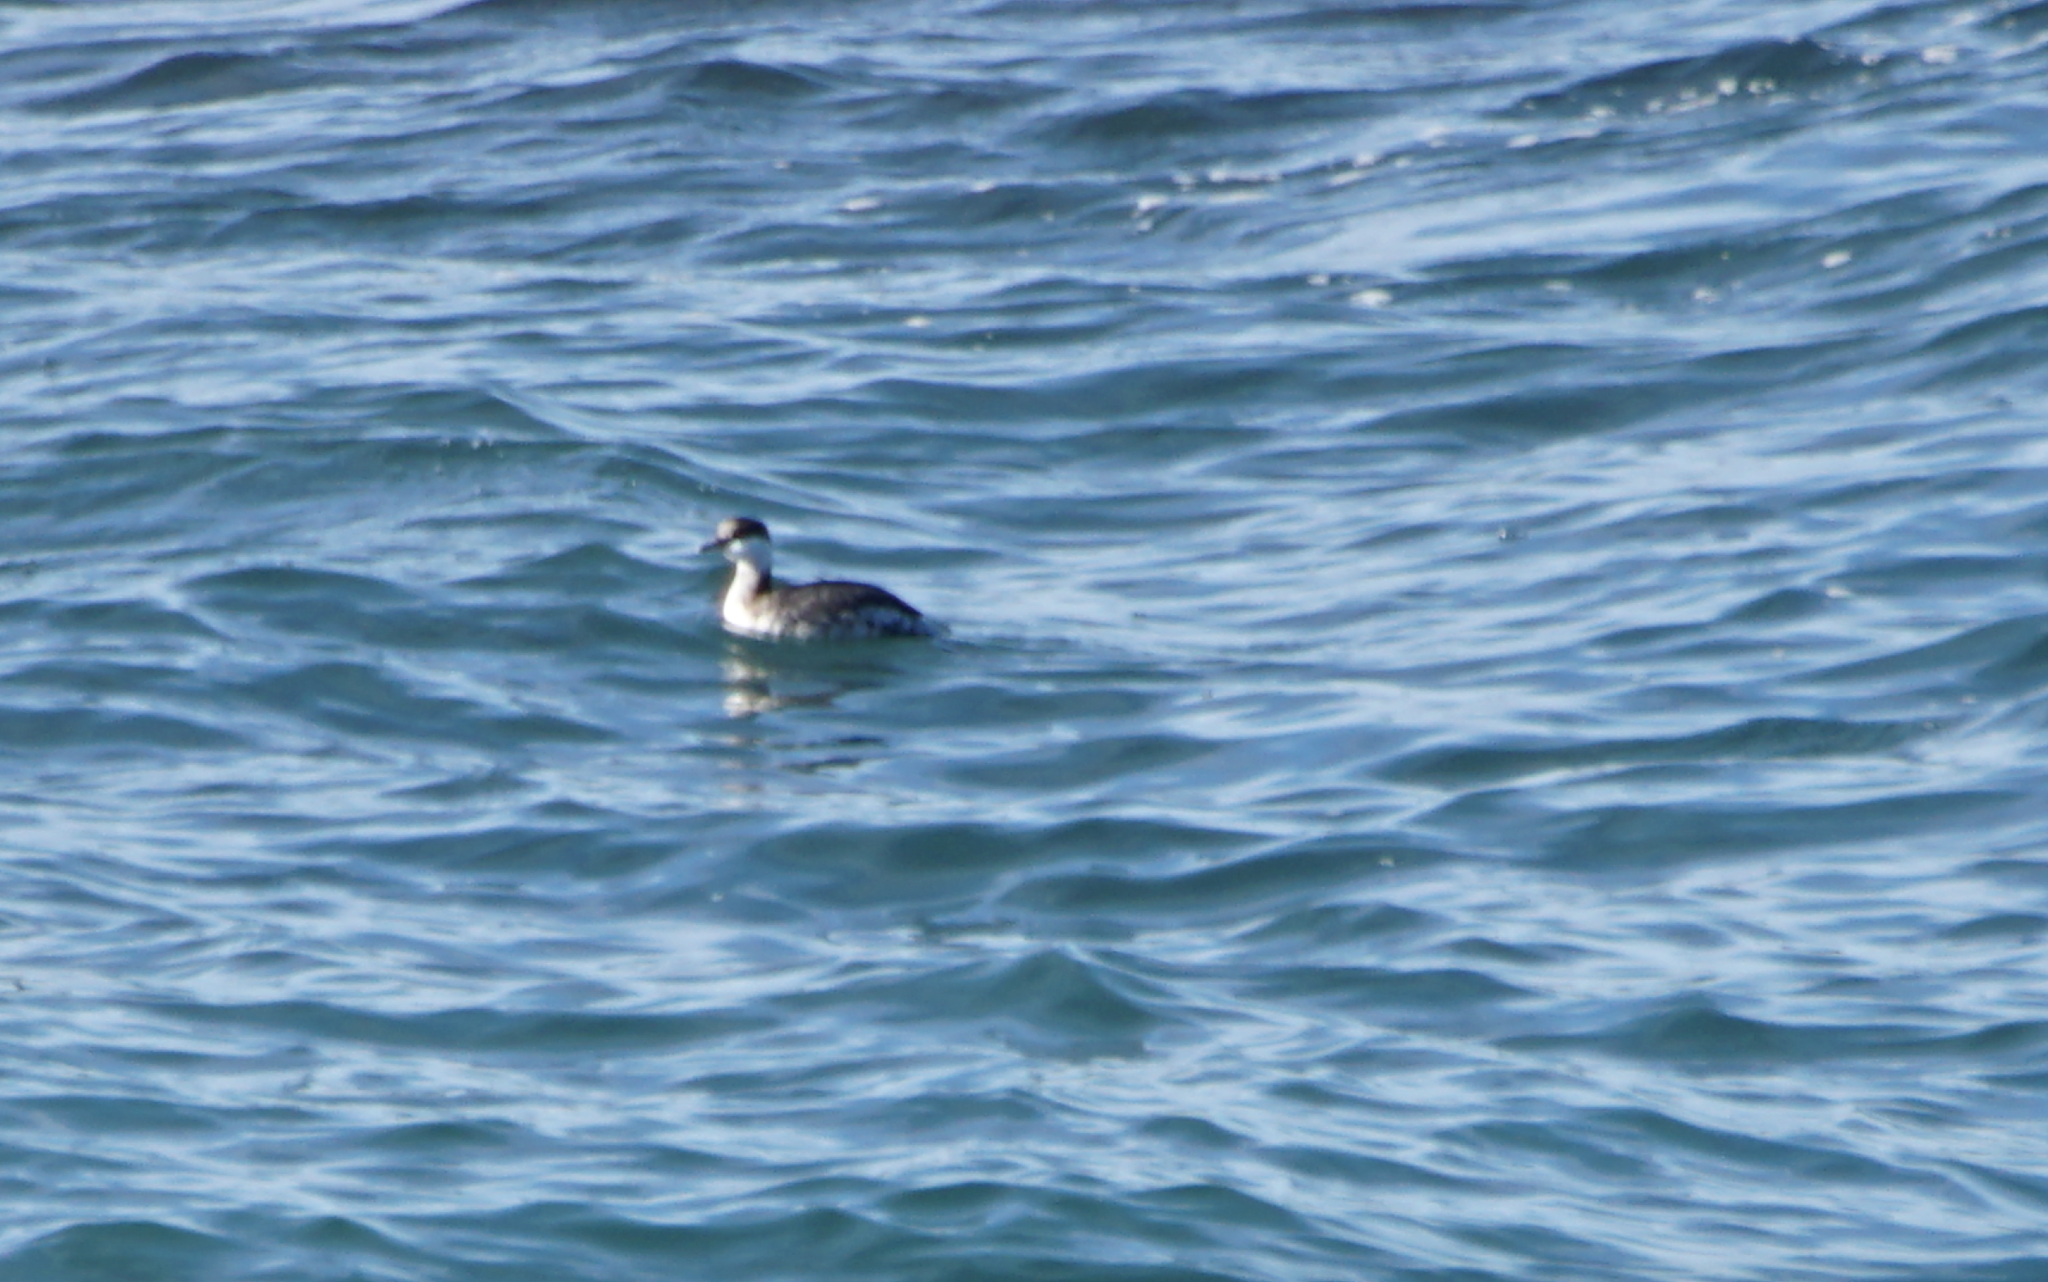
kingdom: Animalia
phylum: Chordata
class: Aves
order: Podicipediformes
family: Podicipedidae
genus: Podiceps
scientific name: Podiceps auritus
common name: Horned grebe
